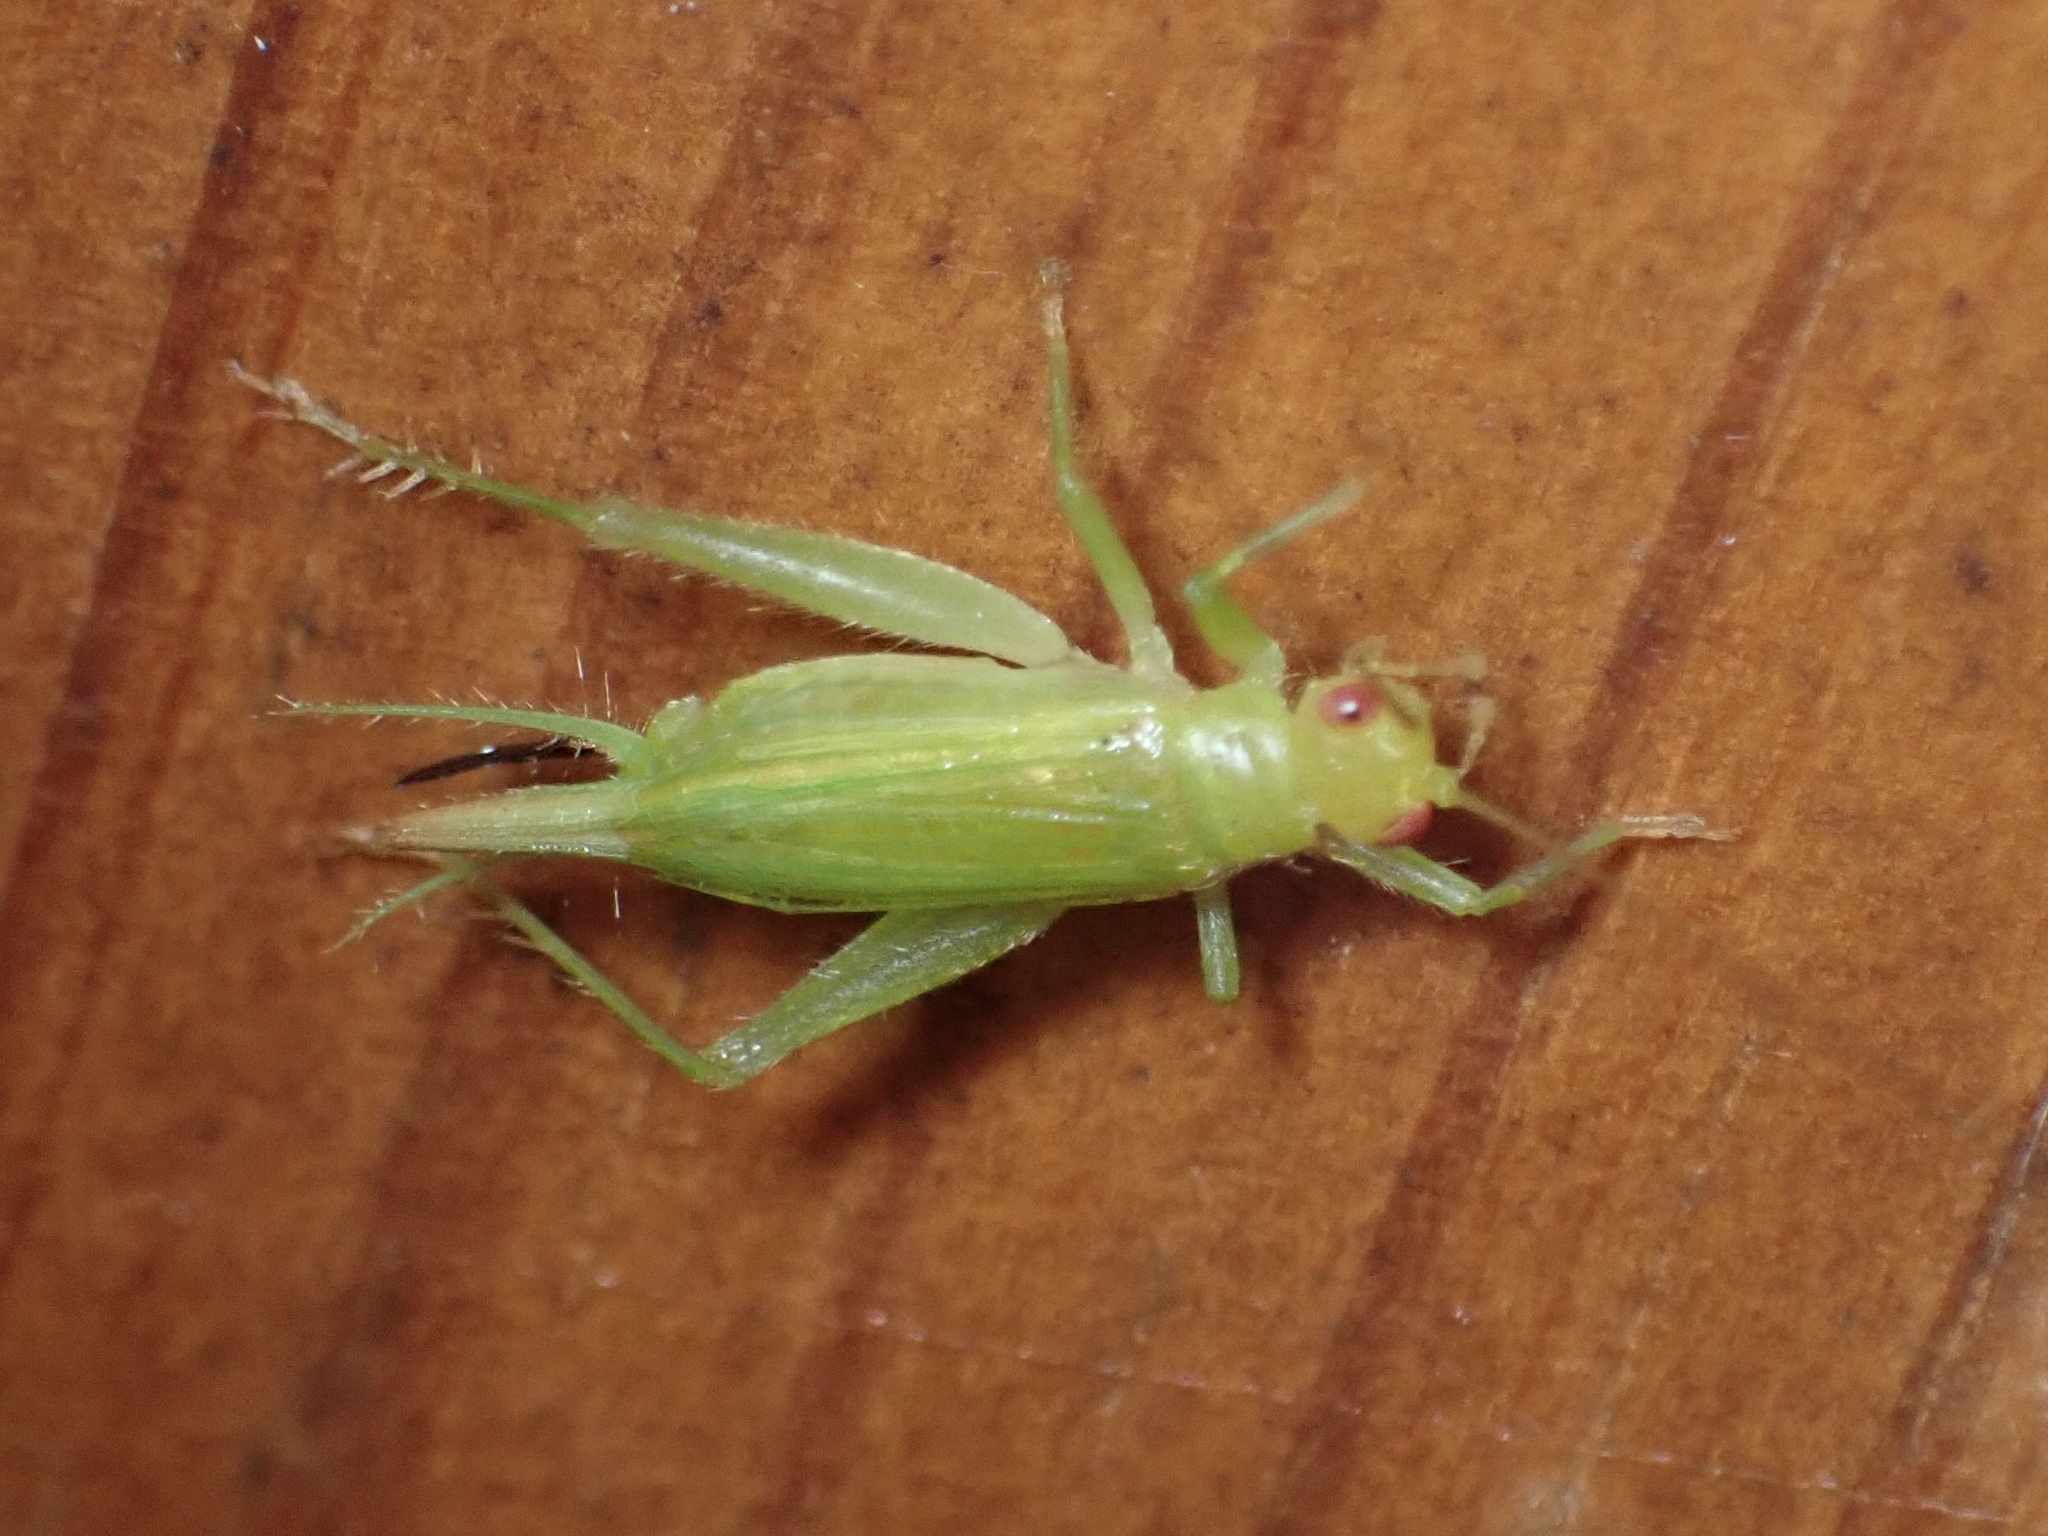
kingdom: Animalia
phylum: Arthropoda
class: Insecta
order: Orthoptera
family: Trigonidiidae
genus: Cyrtoxipha
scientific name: Cyrtoxipha columbiana
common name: Columbian trig
